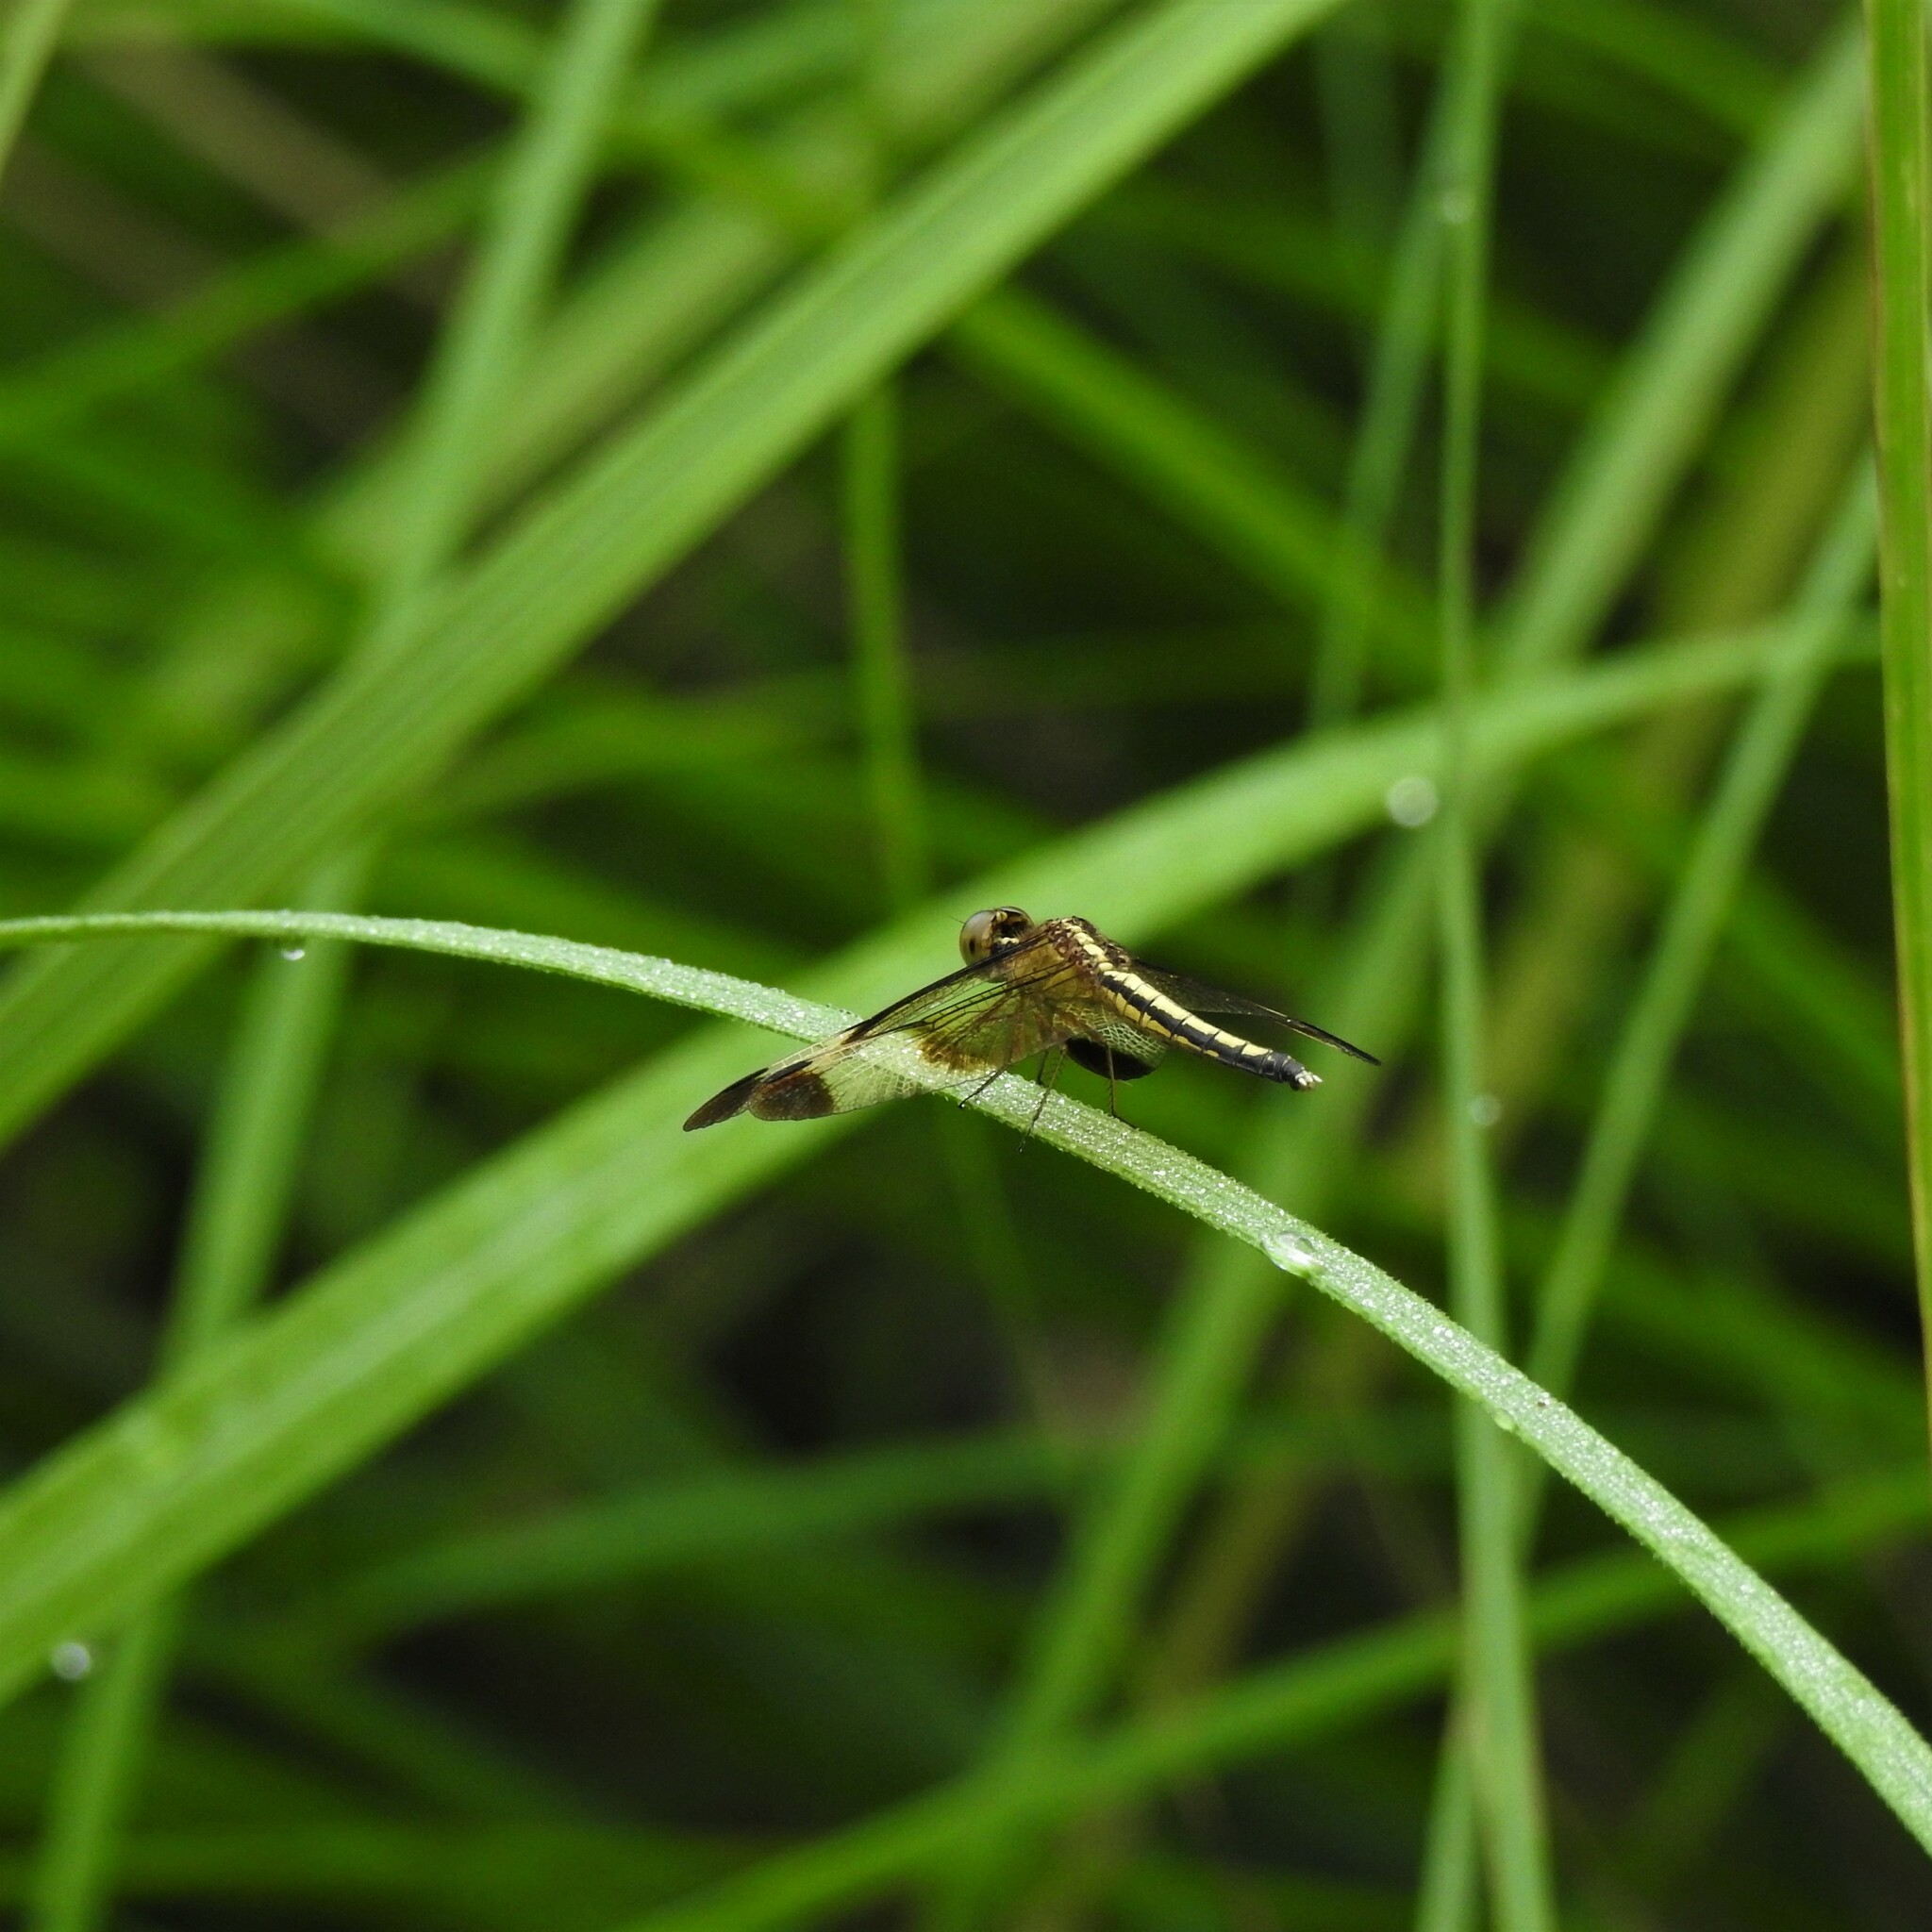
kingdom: Animalia
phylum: Arthropoda
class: Insecta
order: Odonata
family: Libellulidae
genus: Neurothemis
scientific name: Neurothemis tullia
